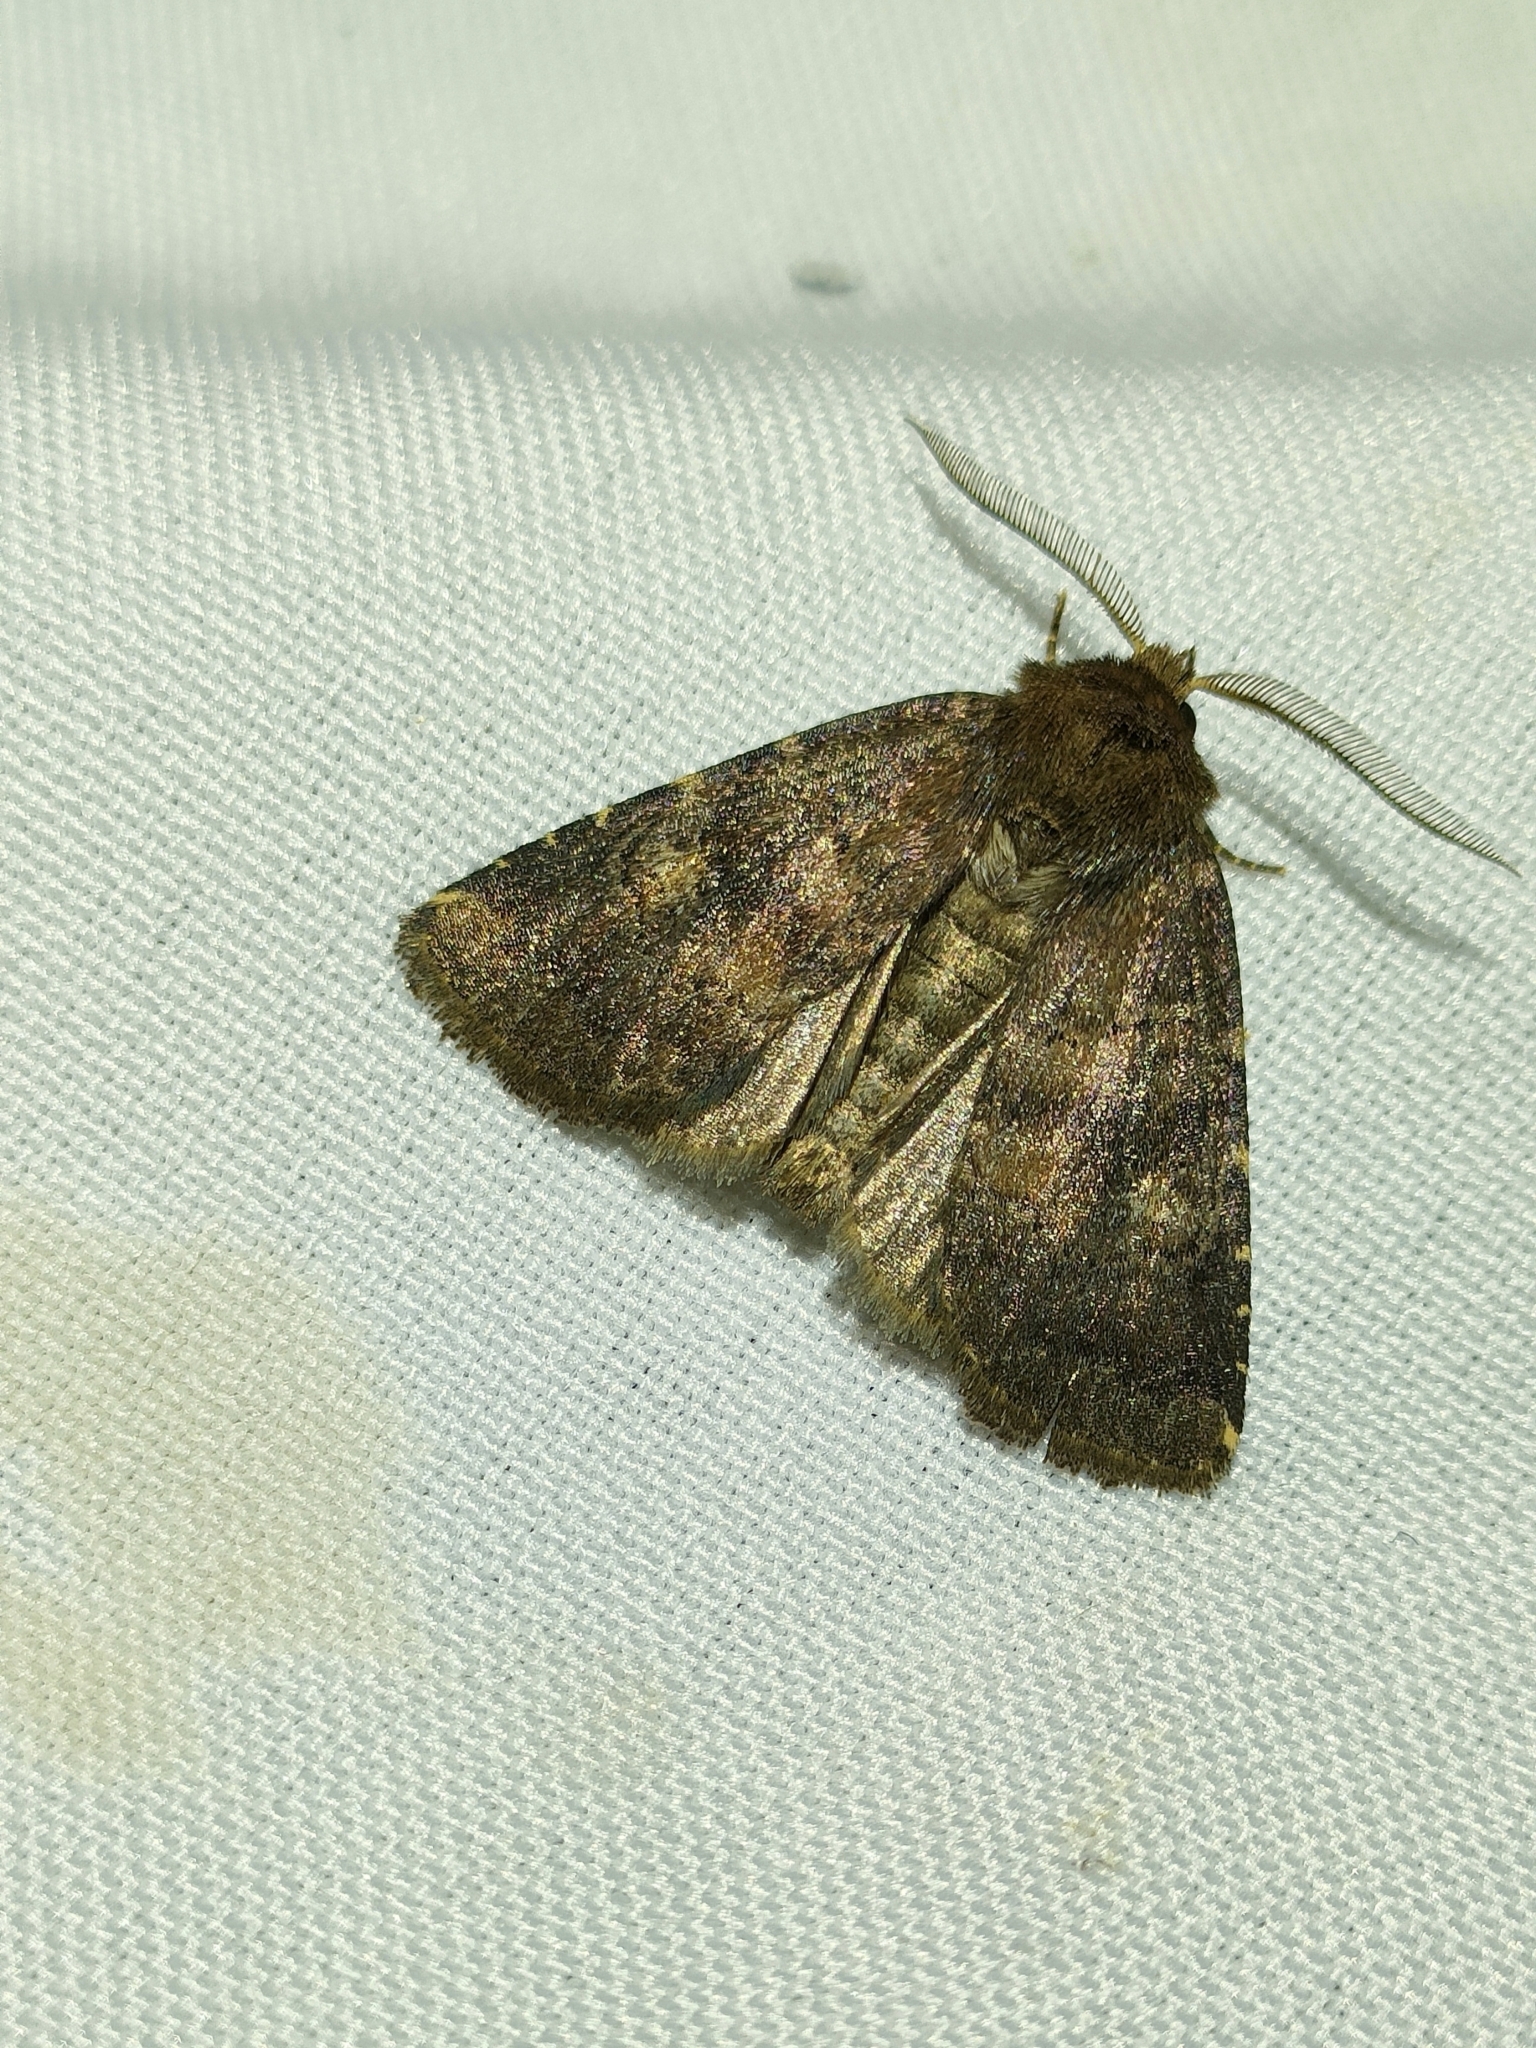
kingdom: Animalia
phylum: Arthropoda
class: Insecta
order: Lepidoptera
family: Noctuidae
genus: Charanyca
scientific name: Charanyca ferruginea
